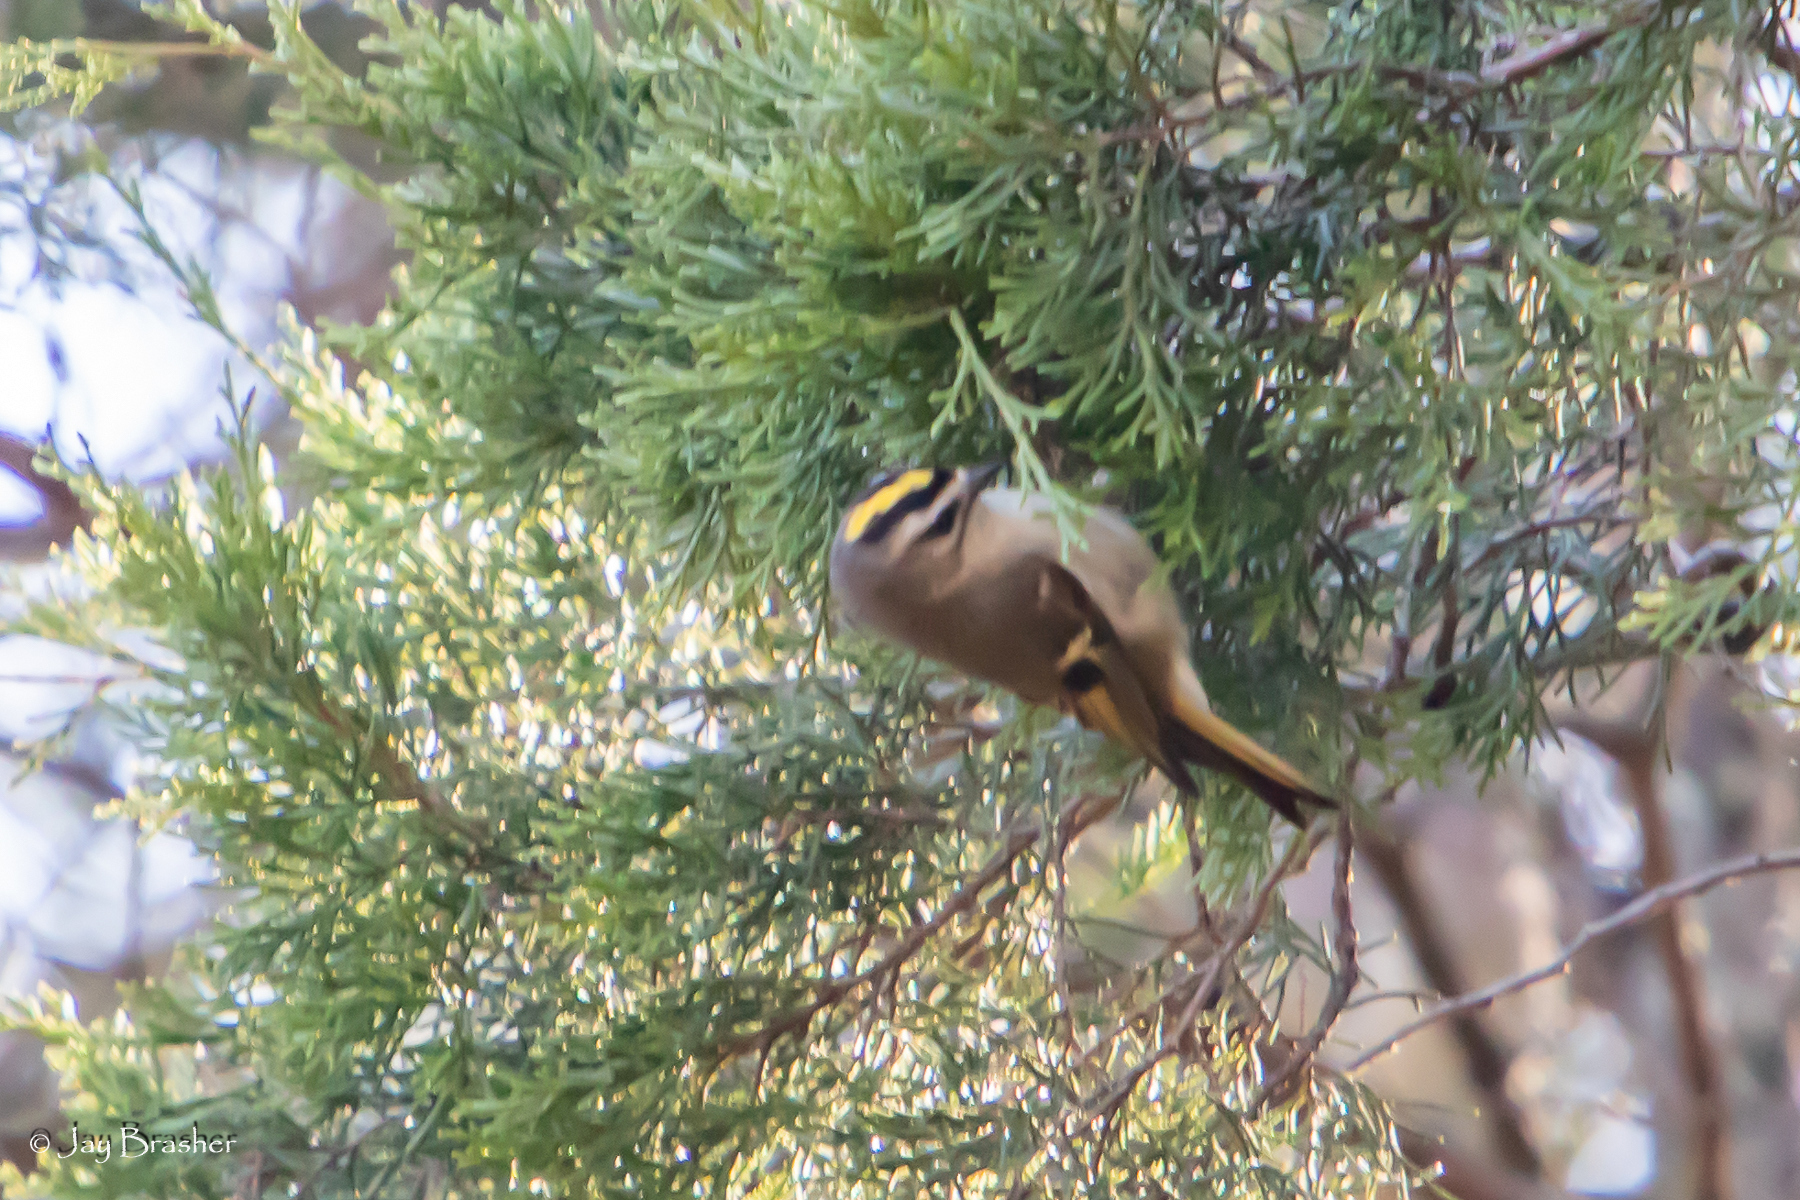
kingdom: Animalia
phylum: Chordata
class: Aves
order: Passeriformes
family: Regulidae
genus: Regulus
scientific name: Regulus satrapa
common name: Golden-crowned kinglet
